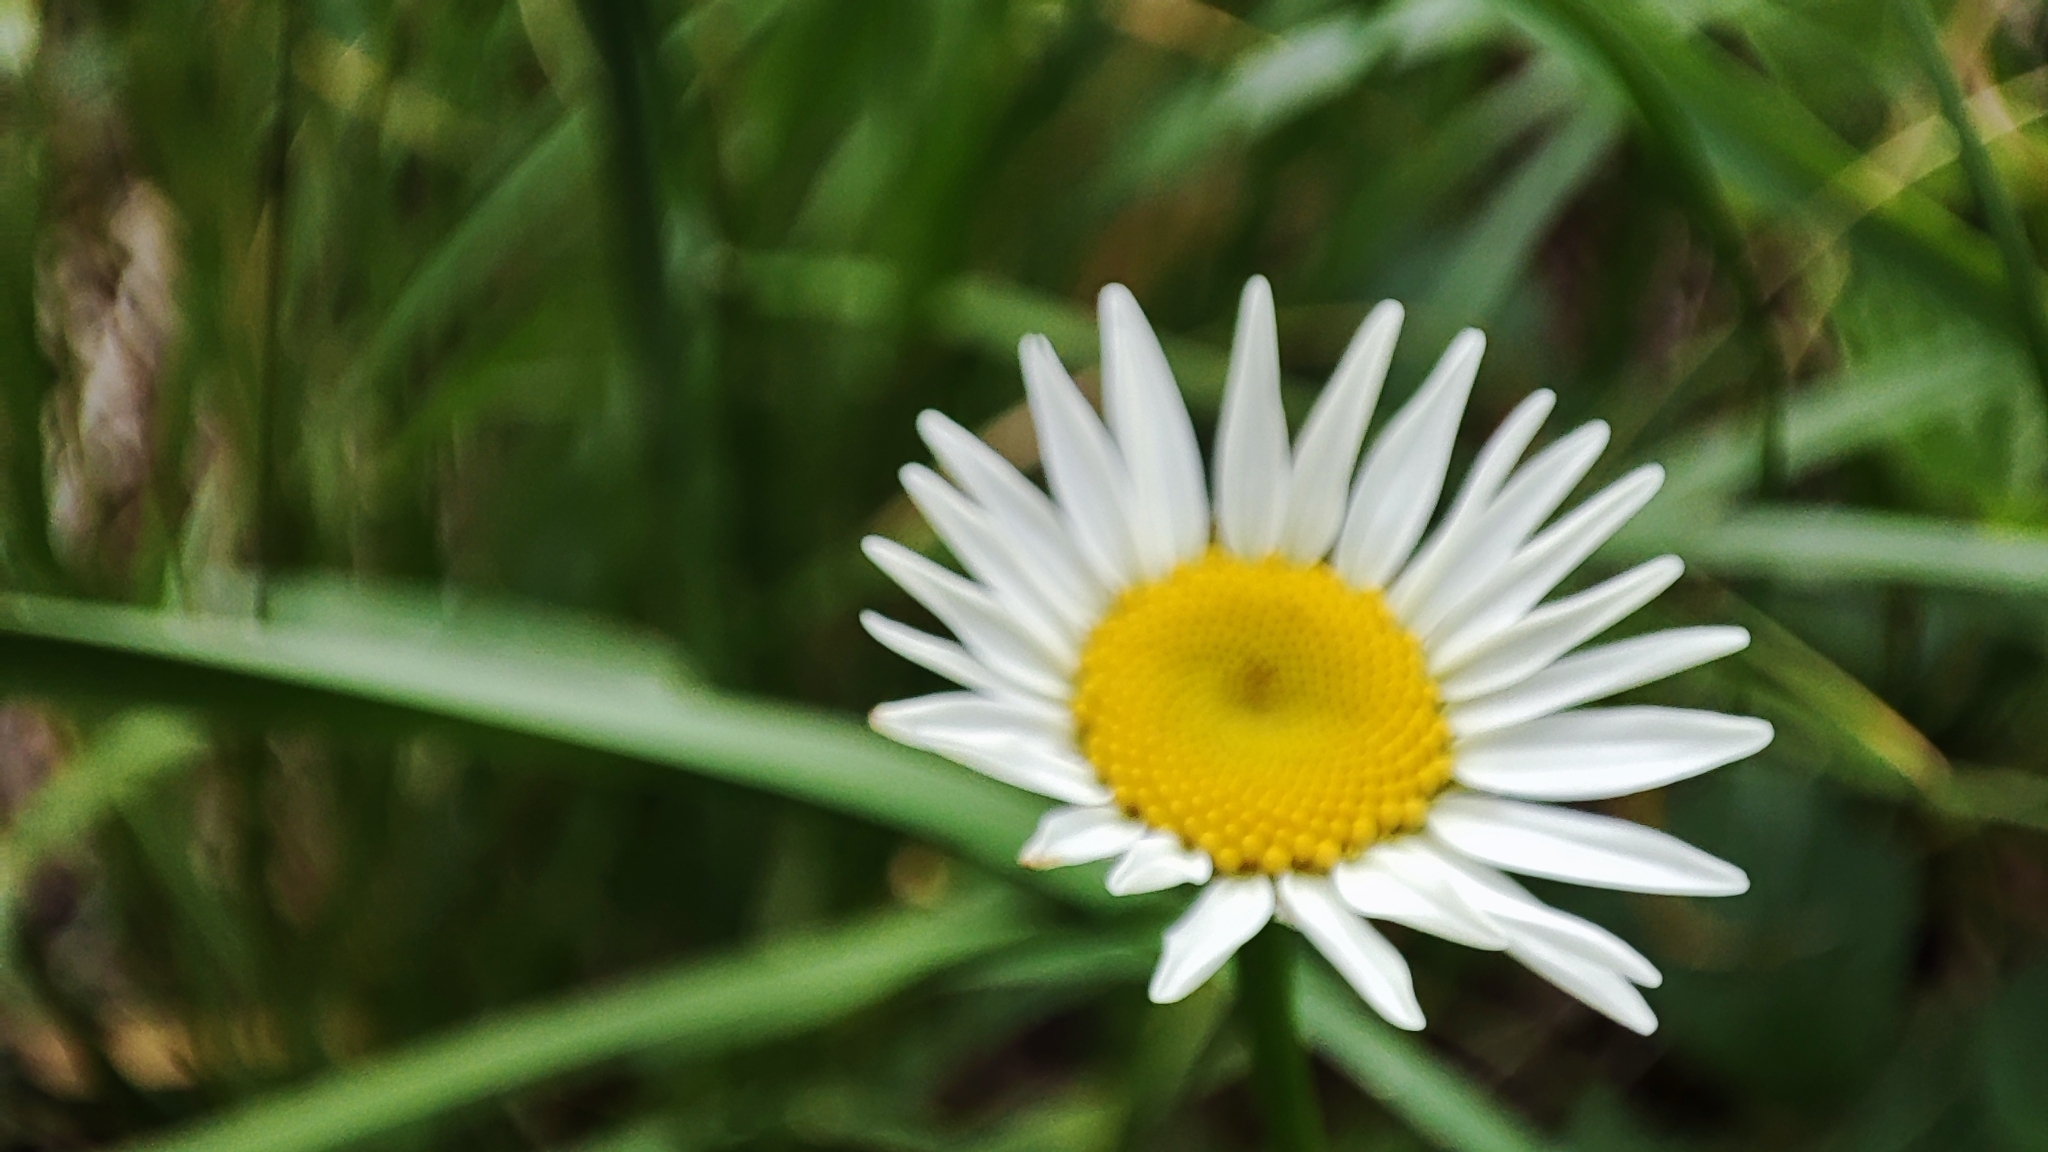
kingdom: Plantae
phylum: Tracheophyta
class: Magnoliopsida
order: Asterales
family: Asteraceae
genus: Leucanthemum
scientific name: Leucanthemum vulgare
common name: Oxeye daisy
